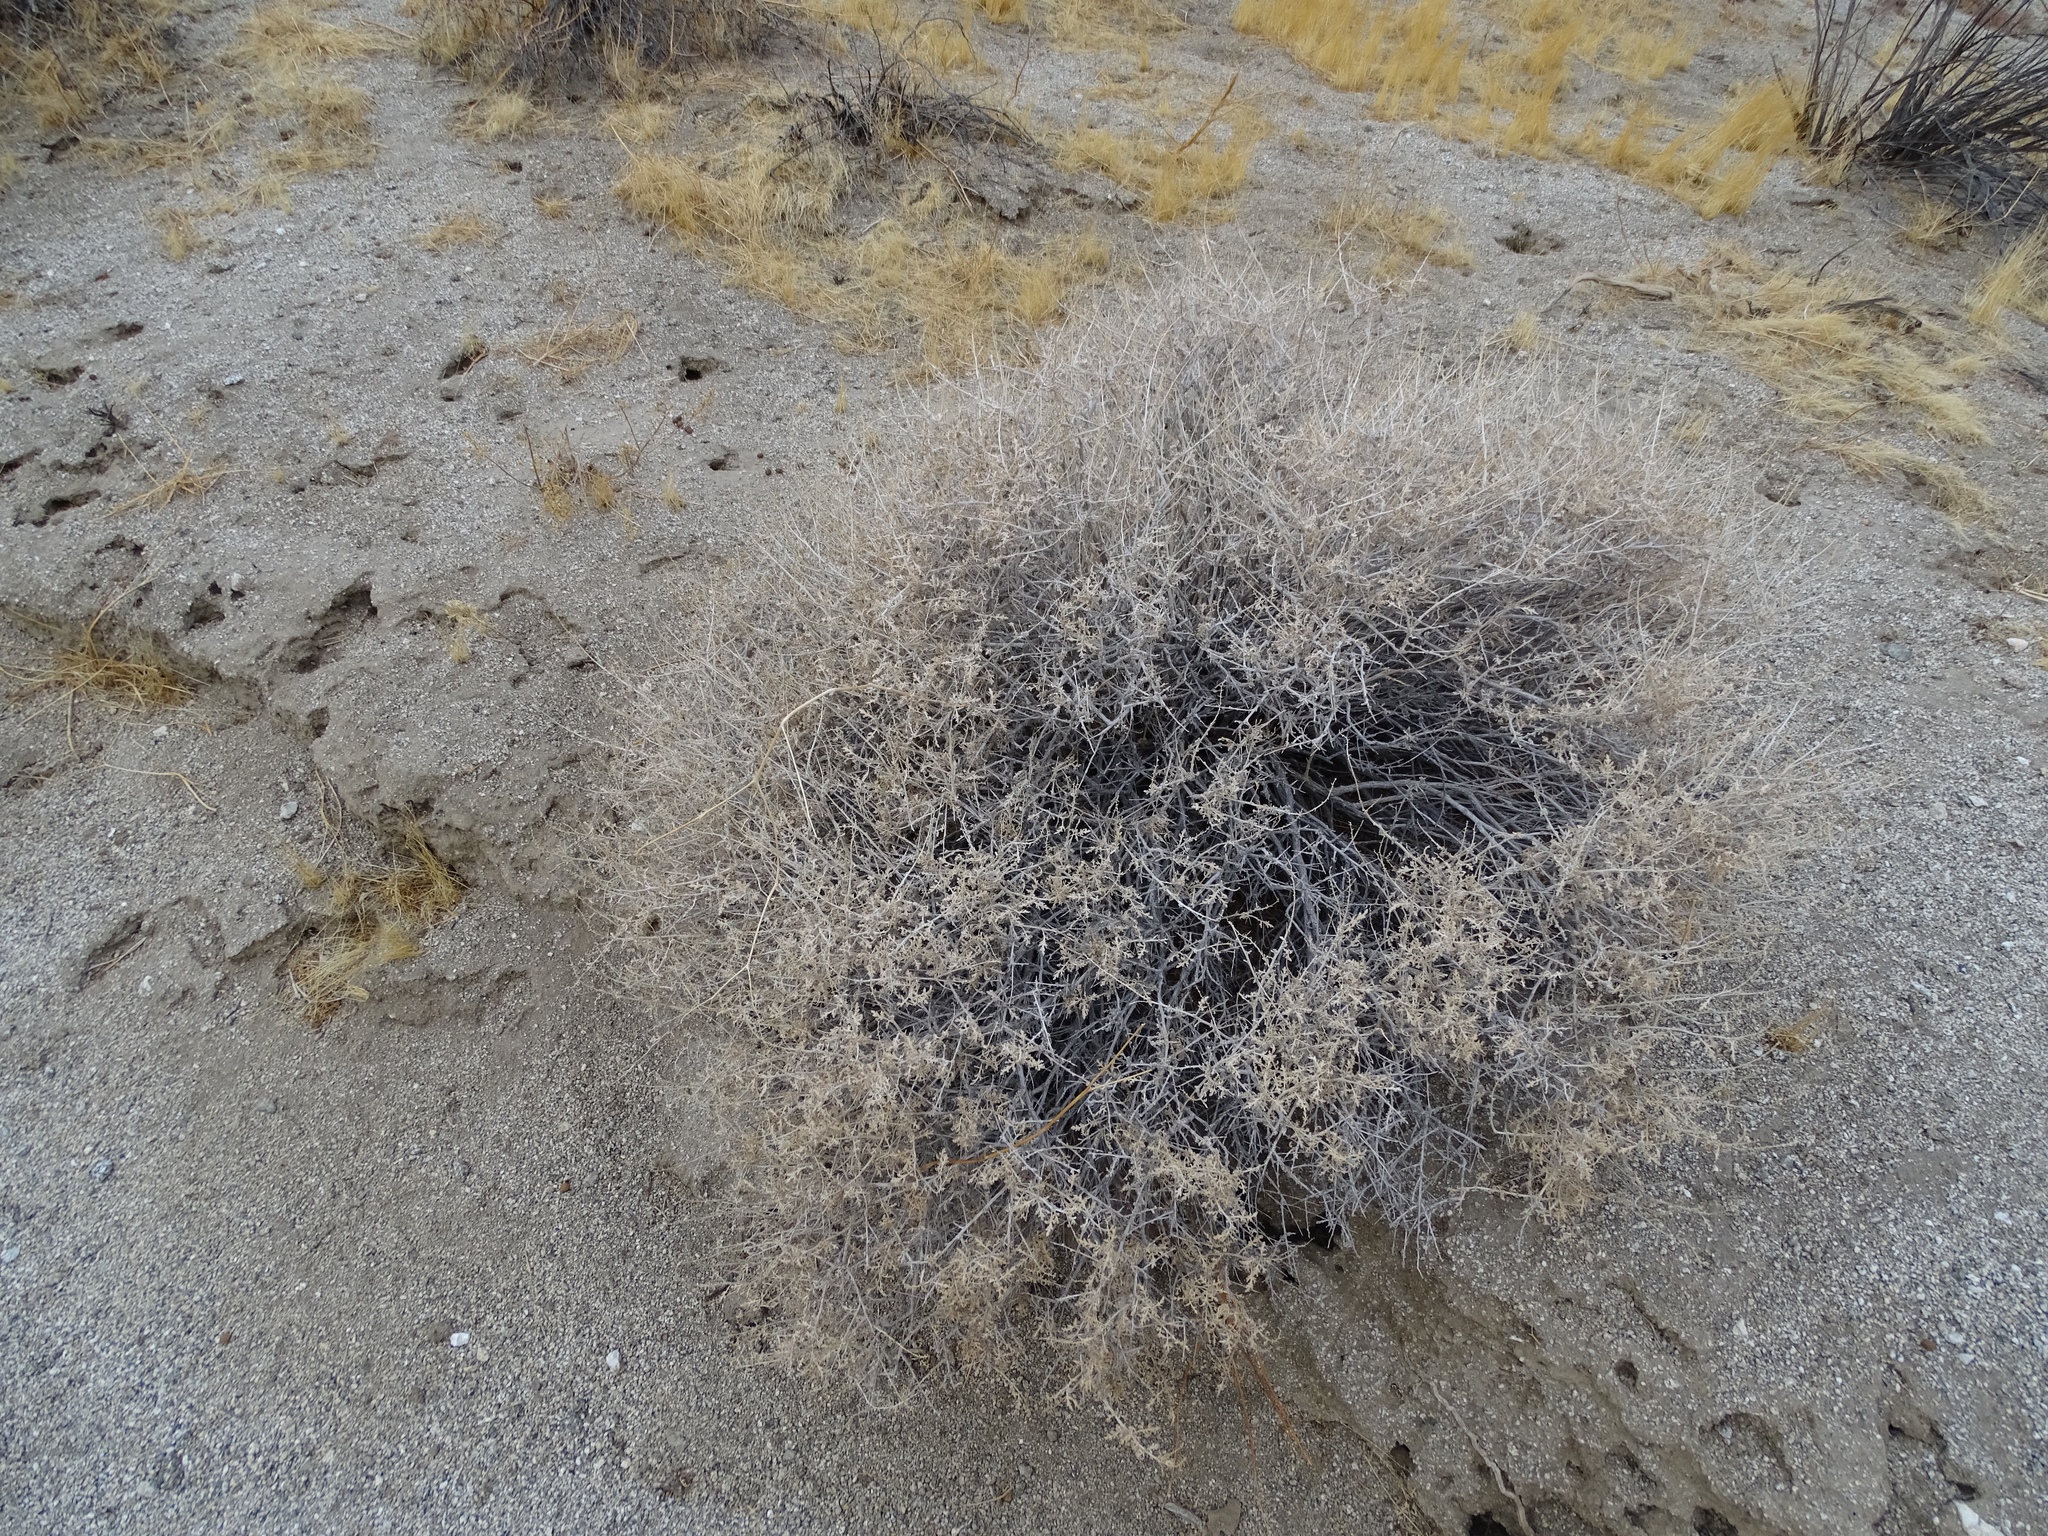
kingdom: Plantae
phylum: Tracheophyta
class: Magnoliopsida
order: Asterales
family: Asteraceae
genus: Ambrosia
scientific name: Ambrosia dumosa
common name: Bur-sage
